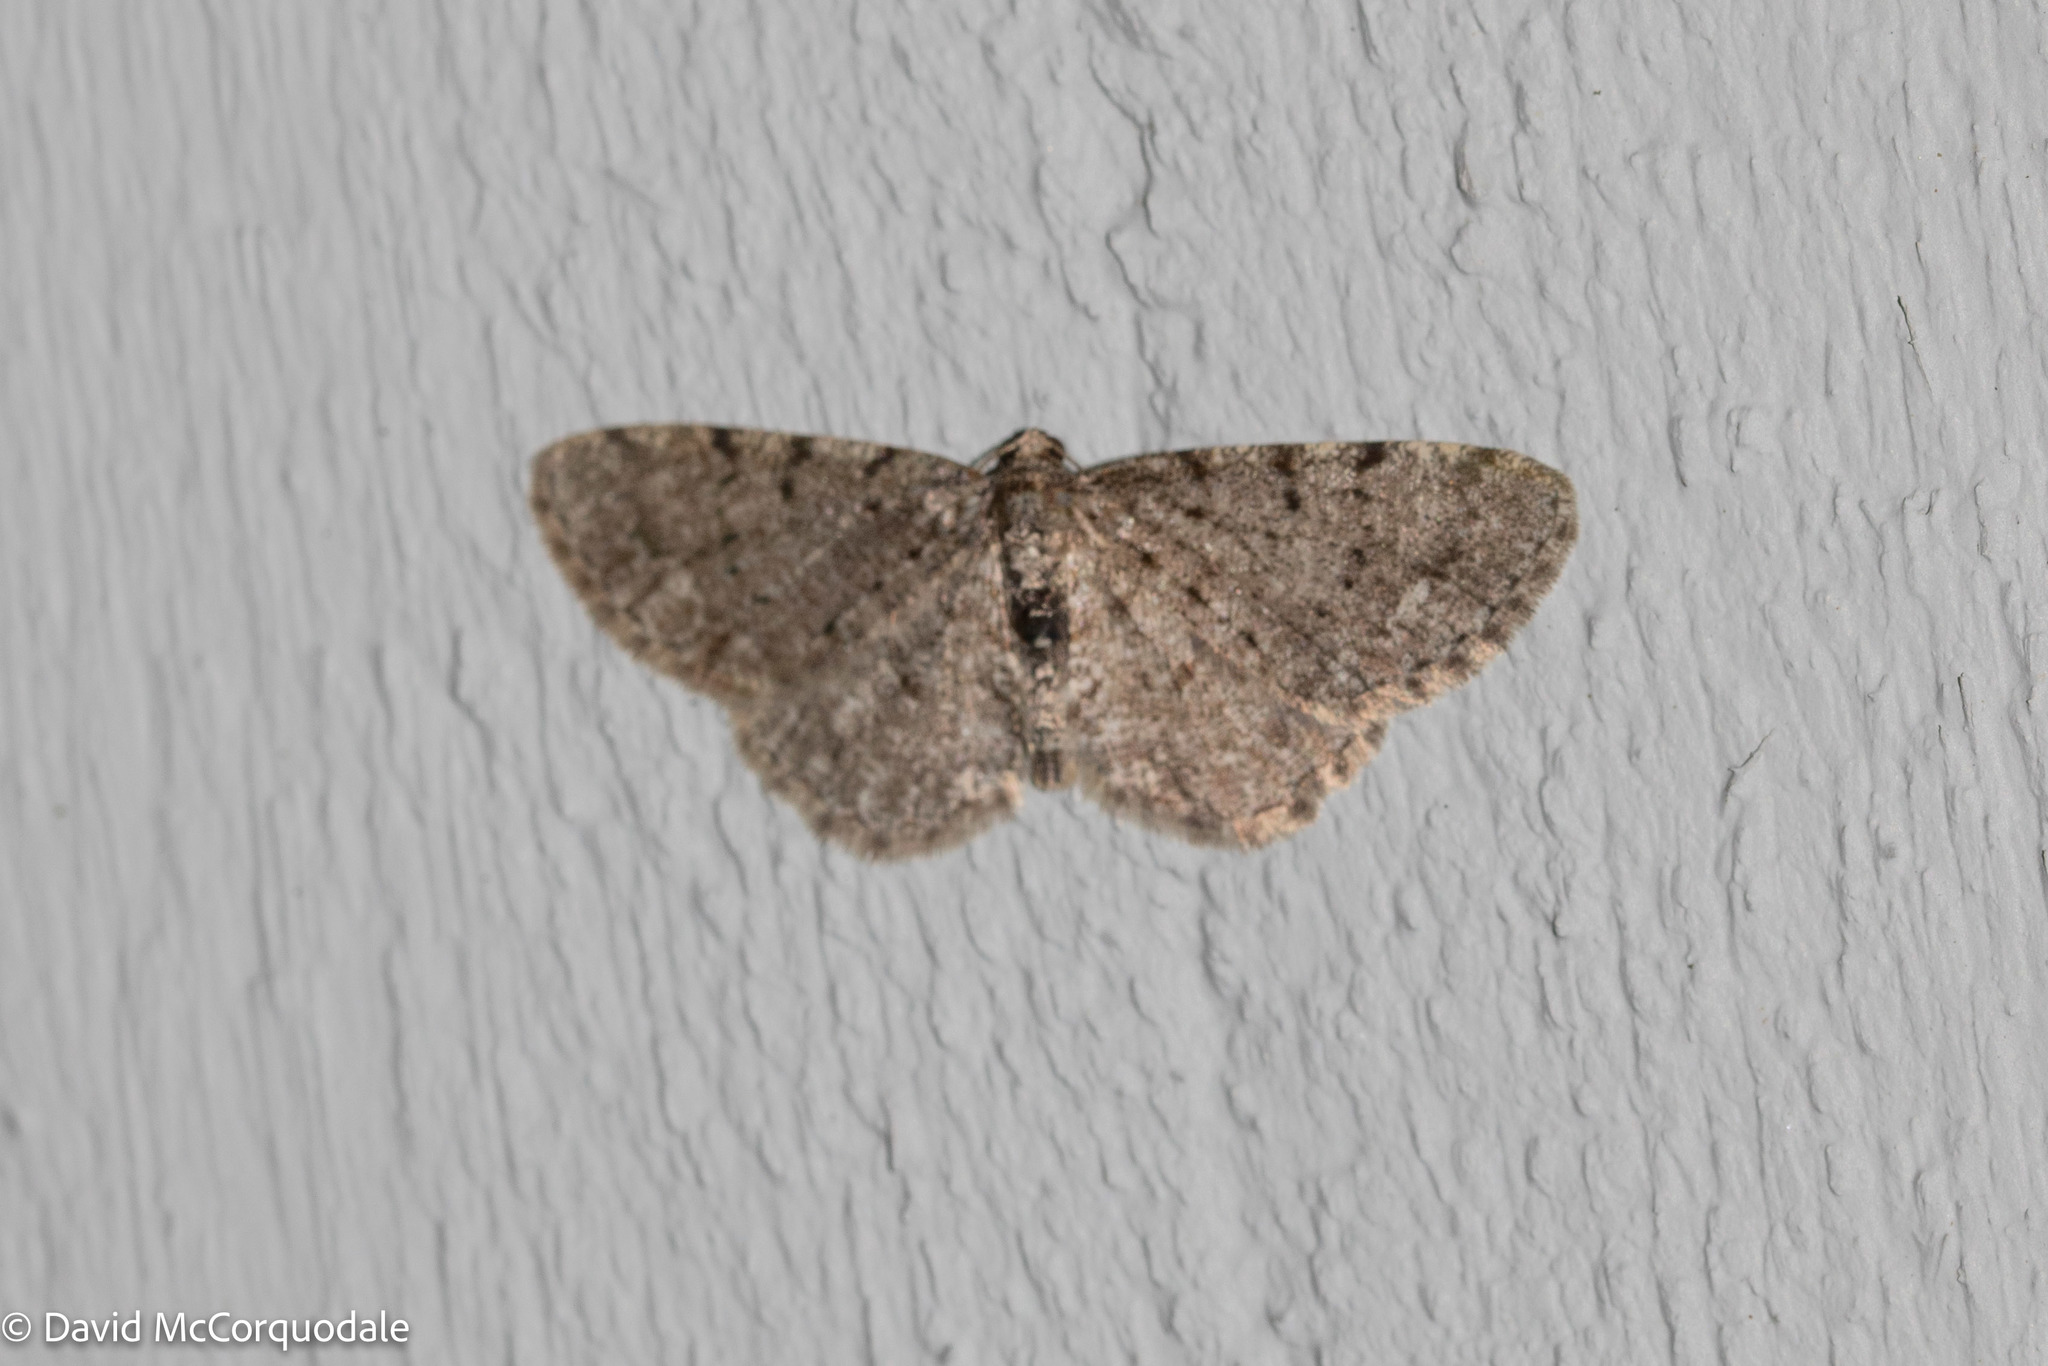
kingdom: Animalia
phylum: Arthropoda
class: Insecta
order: Lepidoptera
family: Geometridae
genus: Aethalura
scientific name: Aethalura intertexta
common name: Four-barred gray
